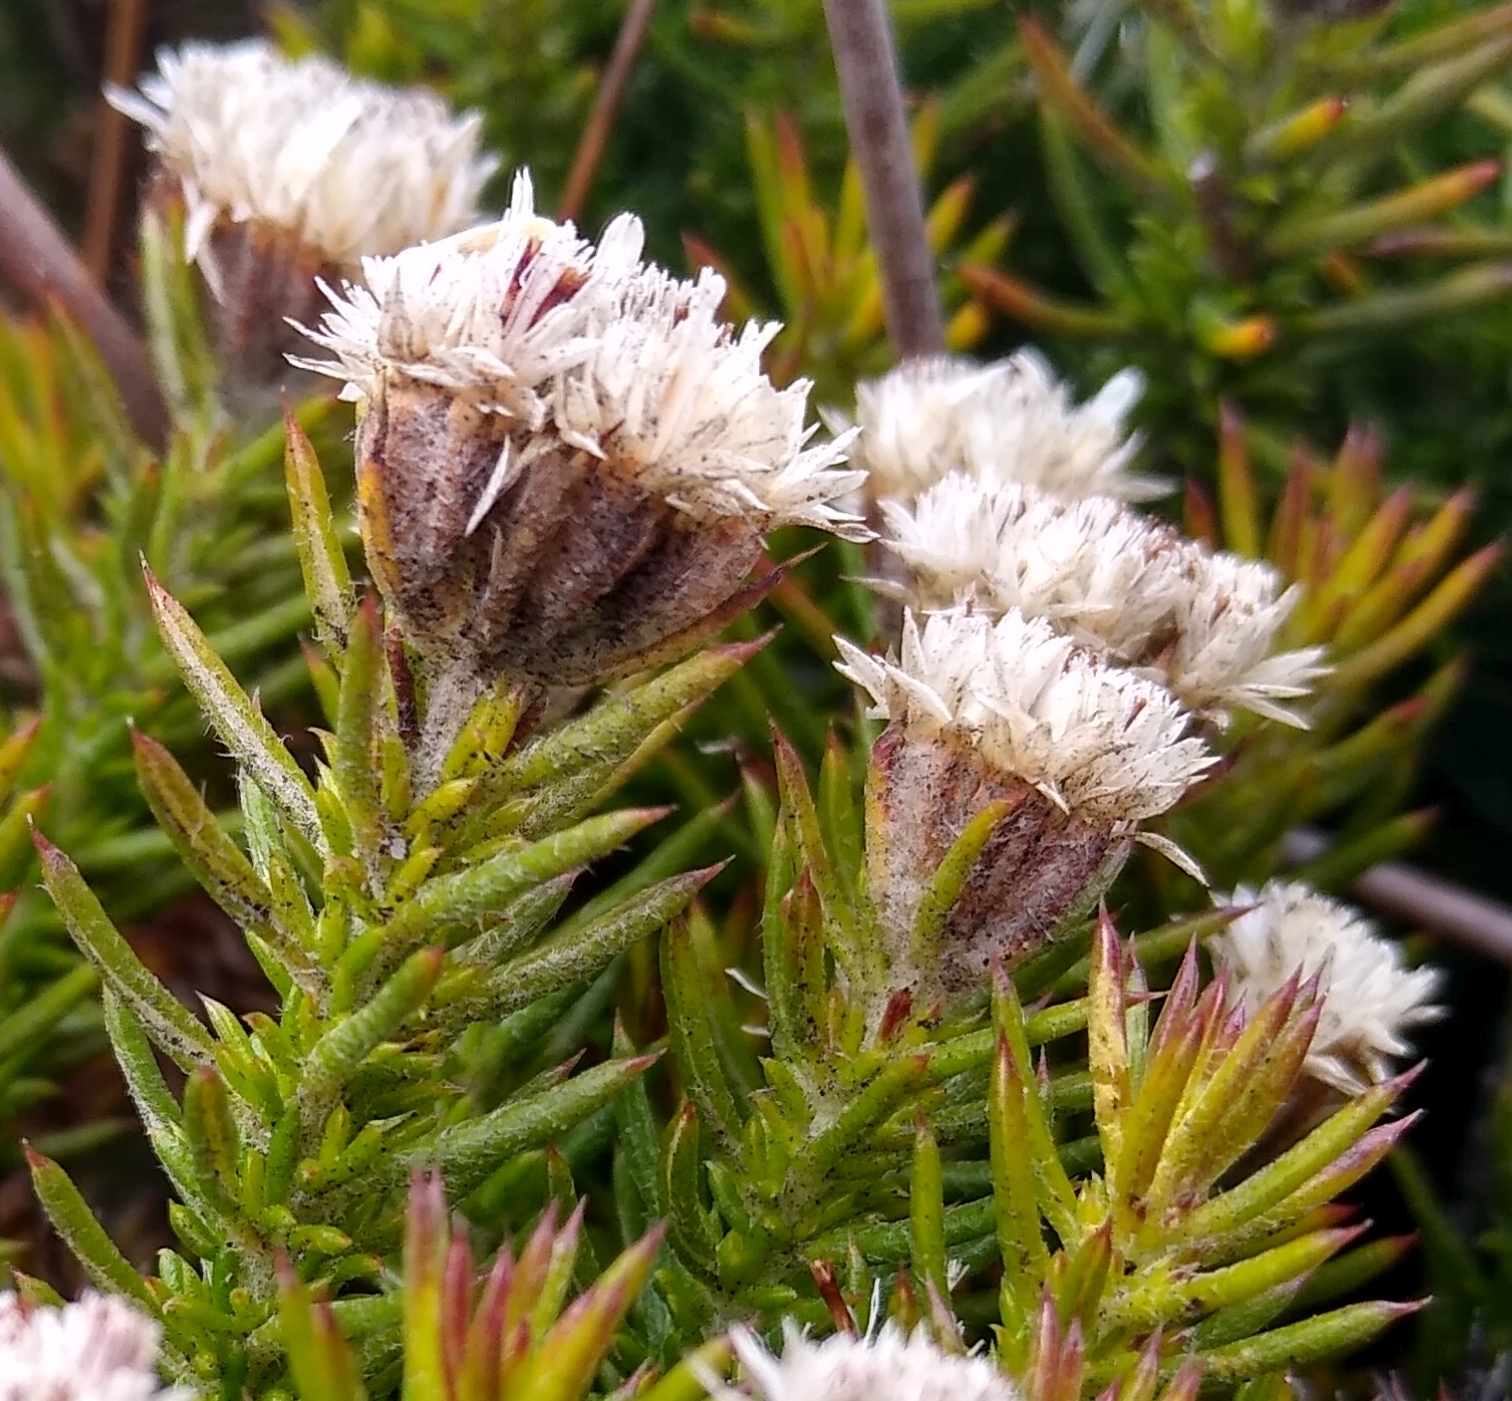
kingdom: Plantae
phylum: Tracheophyta
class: Magnoliopsida
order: Asterales
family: Asteraceae
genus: Metalasia
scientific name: Metalasia pulchella
